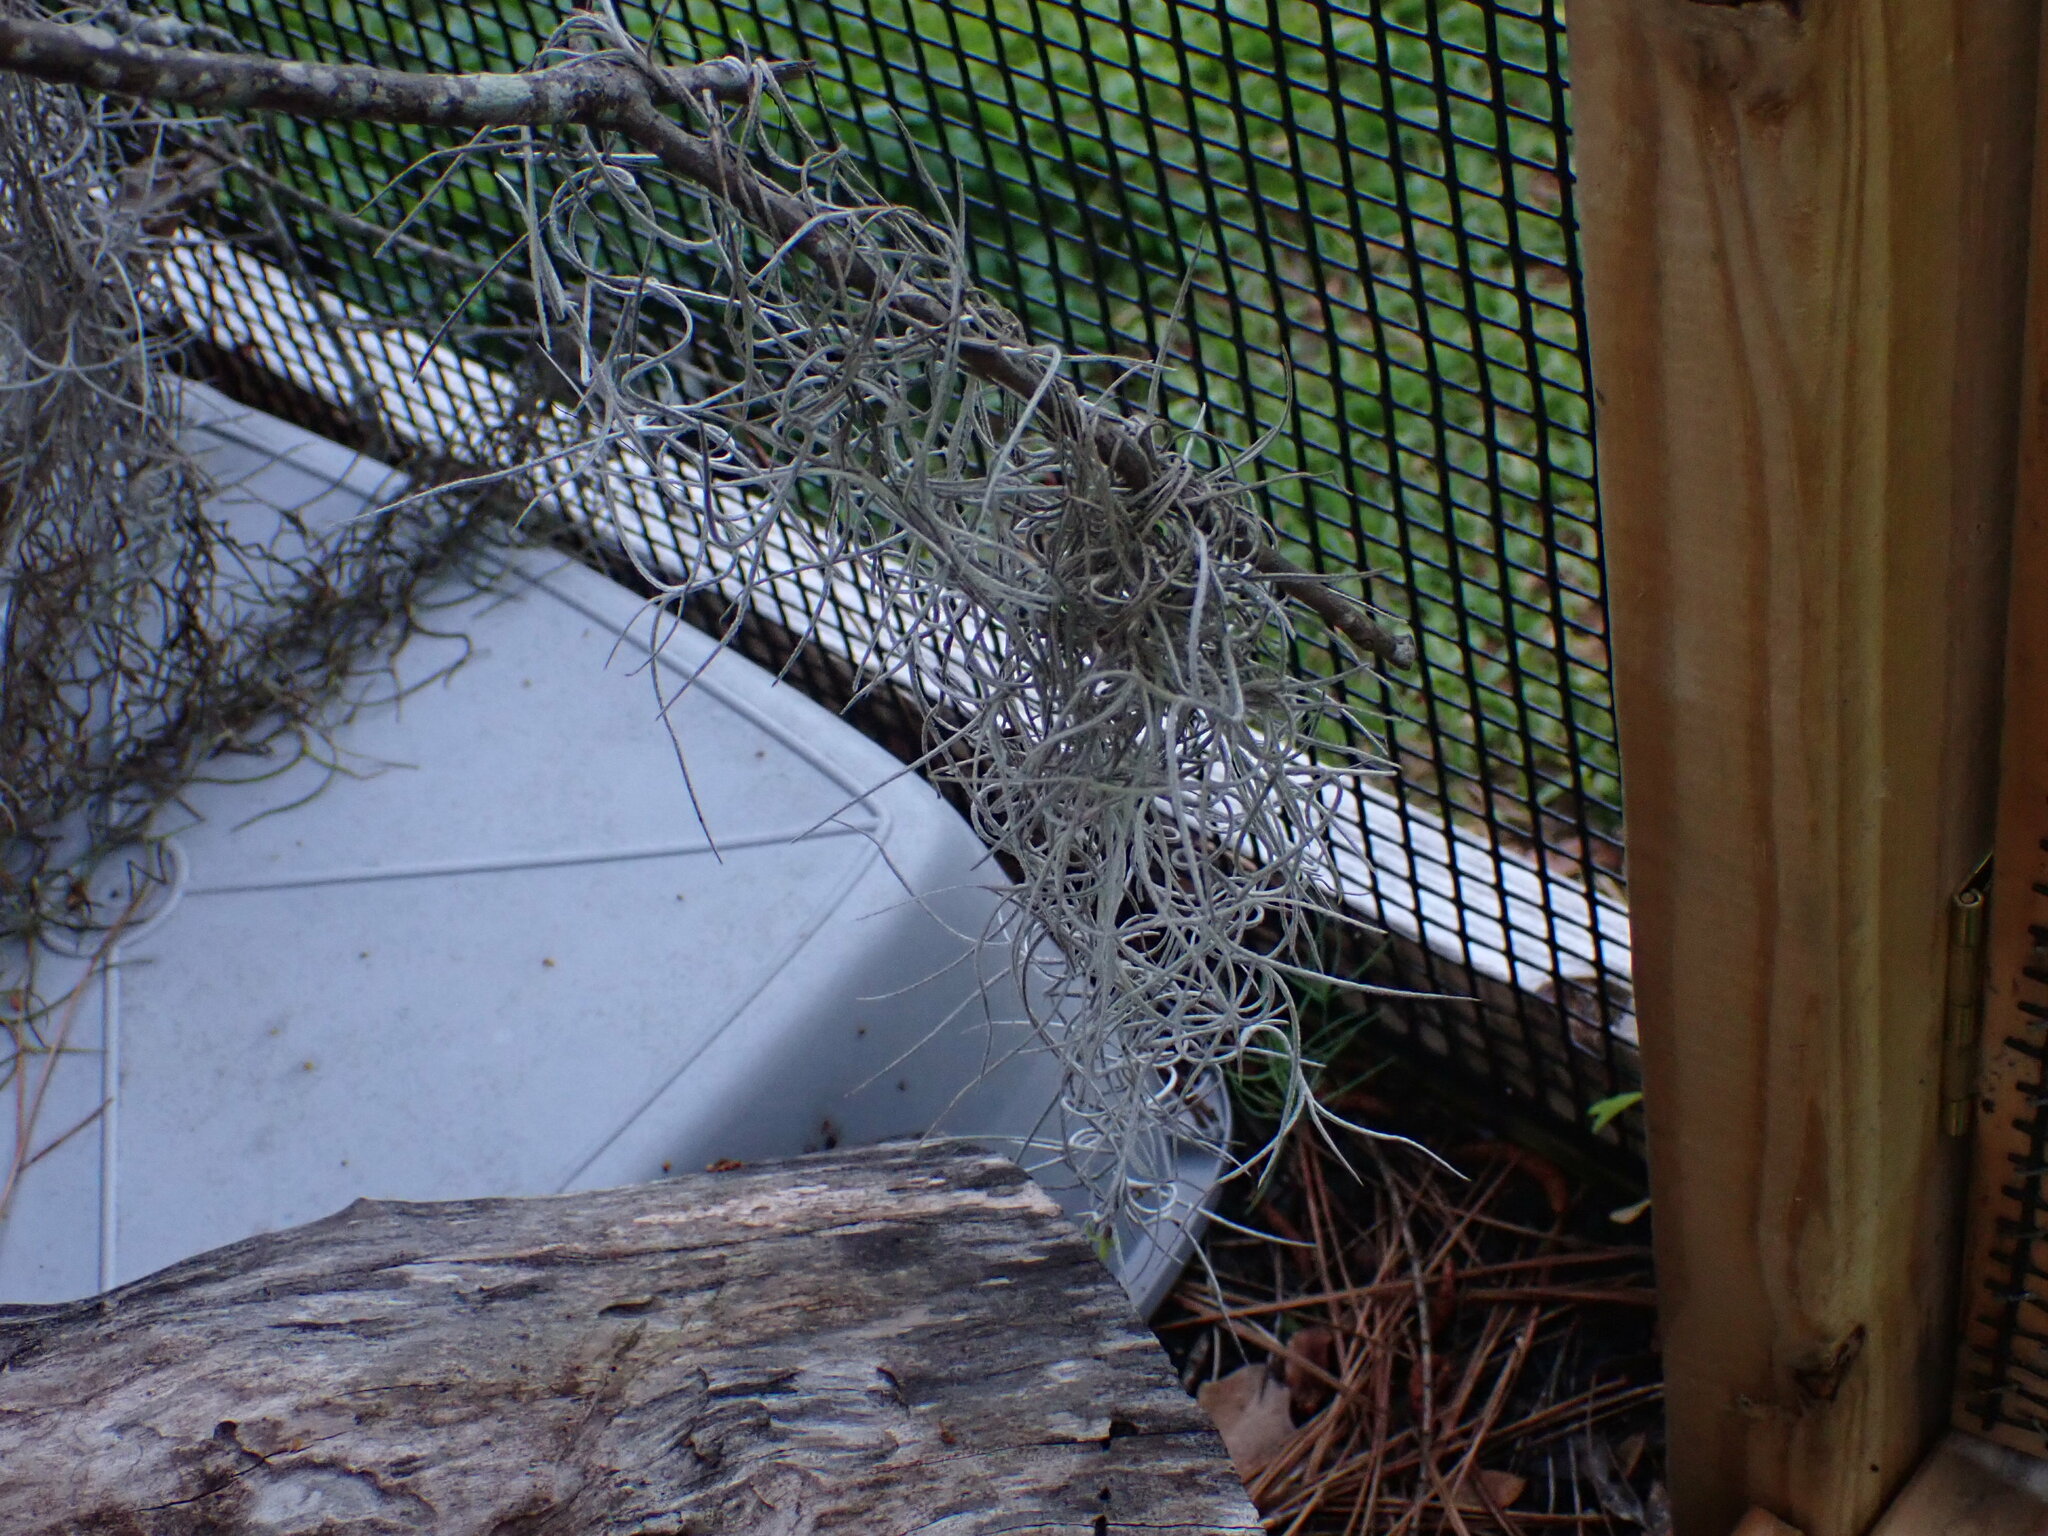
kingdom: Plantae
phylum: Tracheophyta
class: Liliopsida
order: Poales
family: Bromeliaceae
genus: Tillandsia
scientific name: Tillandsia usneoides
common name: Spanish moss
